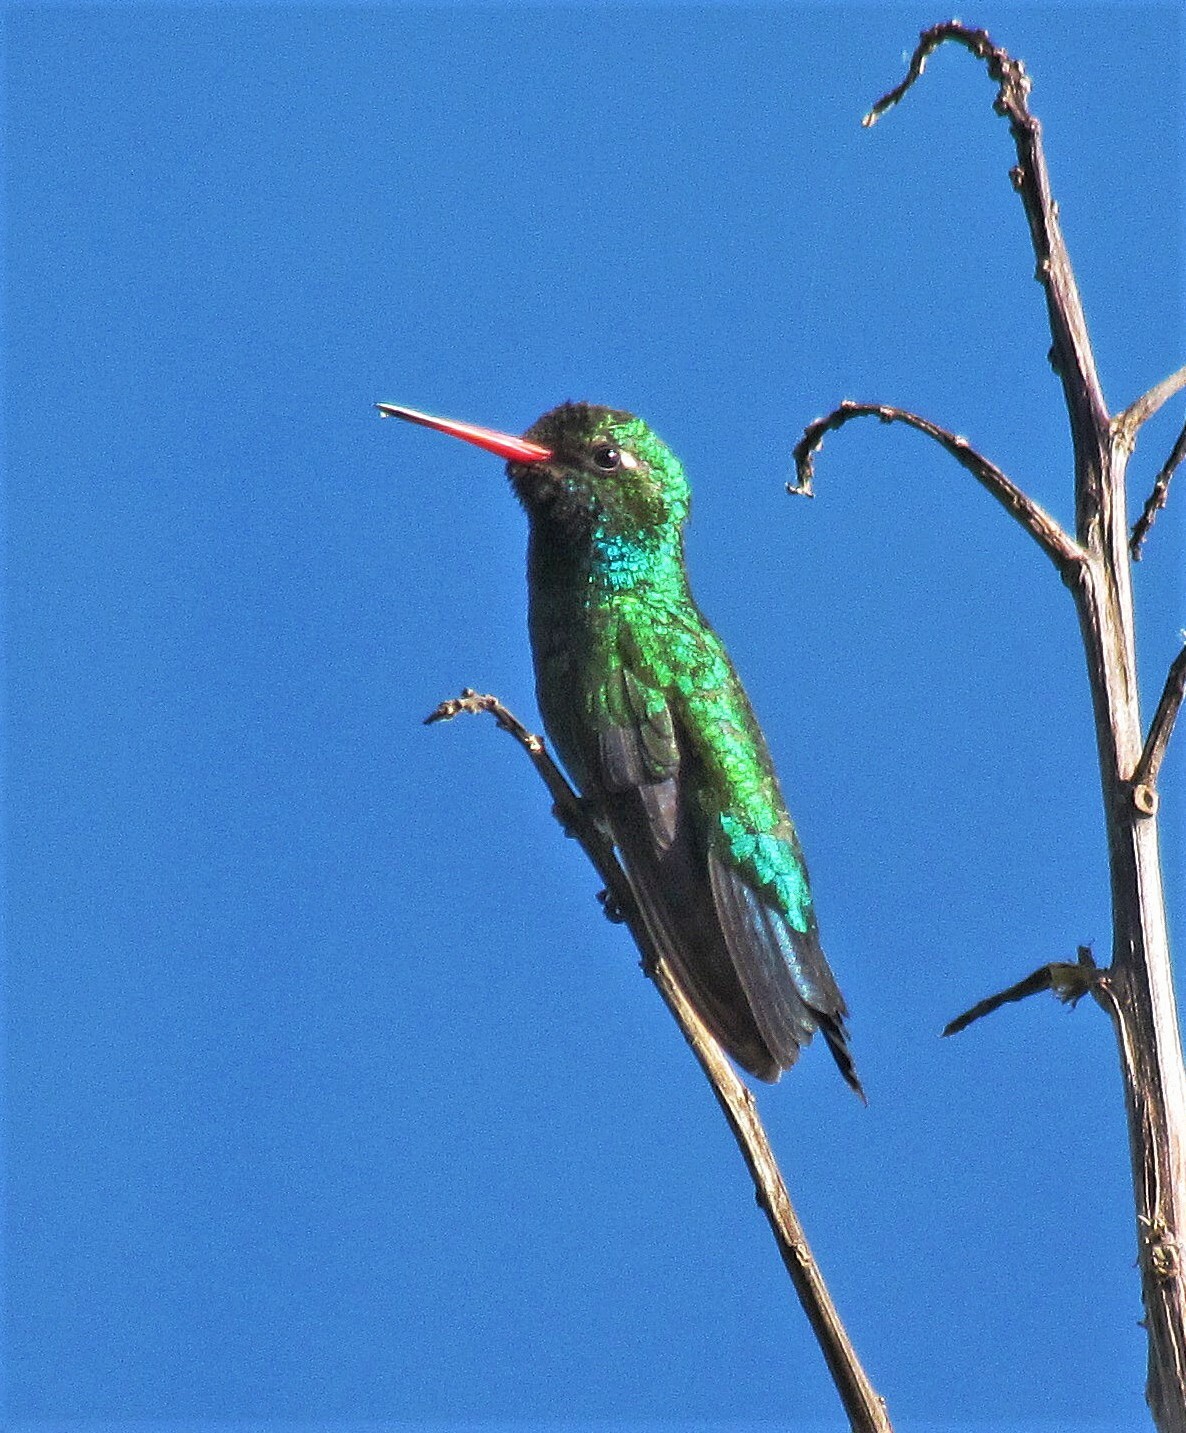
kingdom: Animalia
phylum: Chordata
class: Aves
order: Apodiformes
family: Trochilidae
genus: Chlorostilbon
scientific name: Chlorostilbon lucidus
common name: Glittering-bellied emerald
